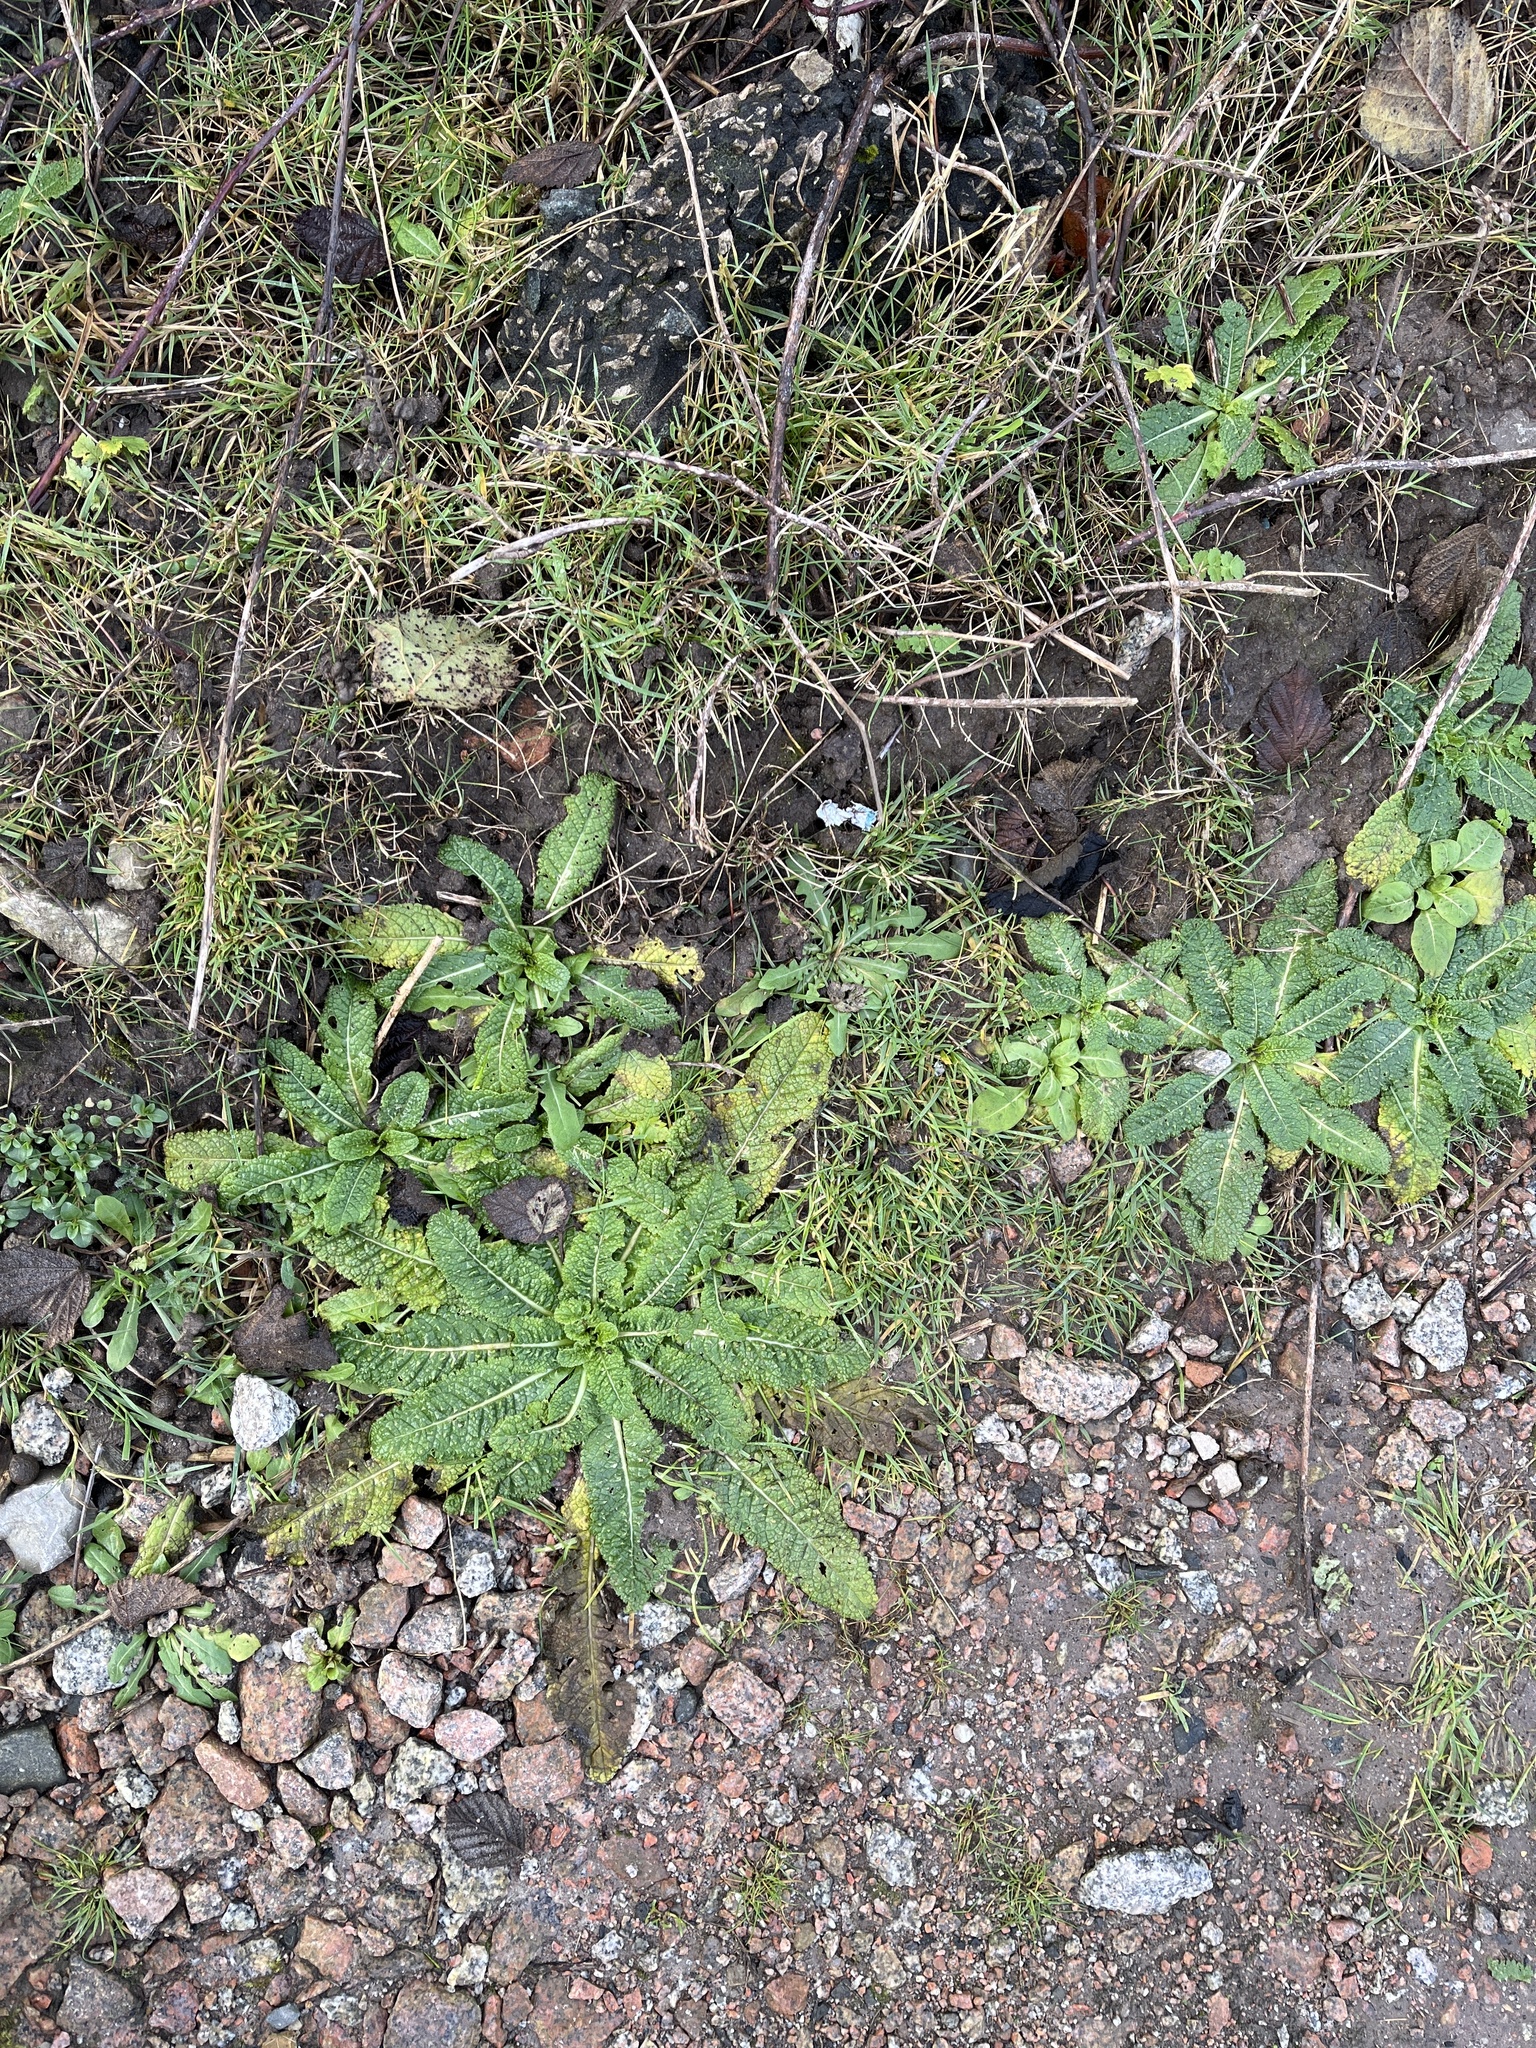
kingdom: Plantae
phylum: Tracheophyta
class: Magnoliopsida
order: Dipsacales
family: Caprifoliaceae
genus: Dipsacus
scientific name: Dipsacus fullonum
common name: Teasel
